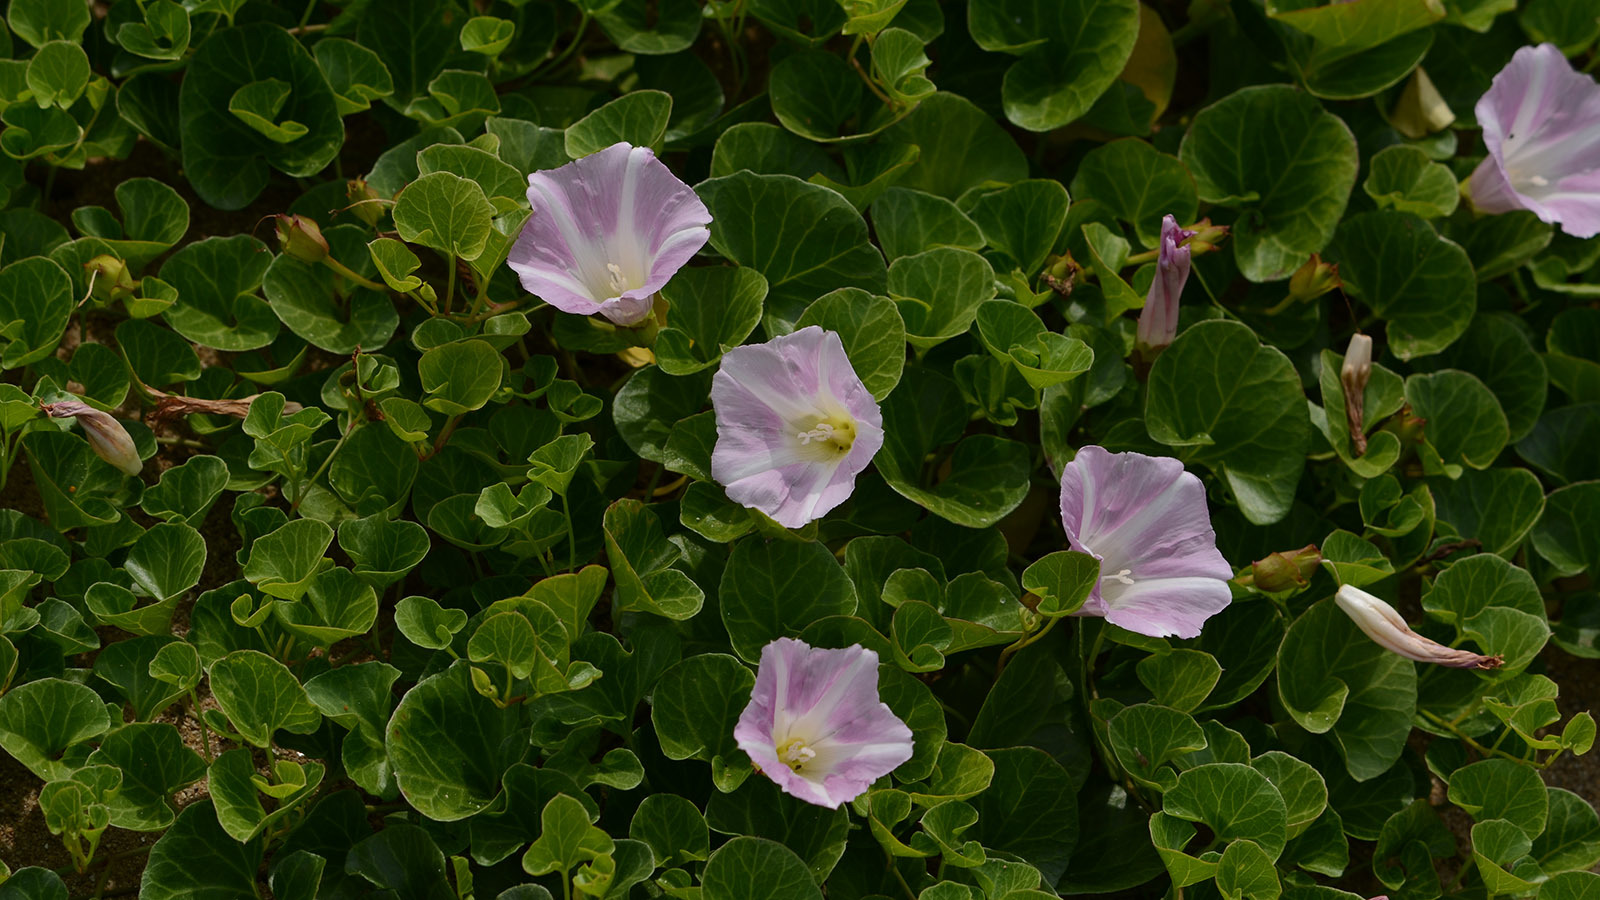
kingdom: Plantae
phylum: Tracheophyta
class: Magnoliopsida
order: Solanales
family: Convolvulaceae
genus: Calystegia
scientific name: Calystegia soldanella
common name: Sea bindweed
